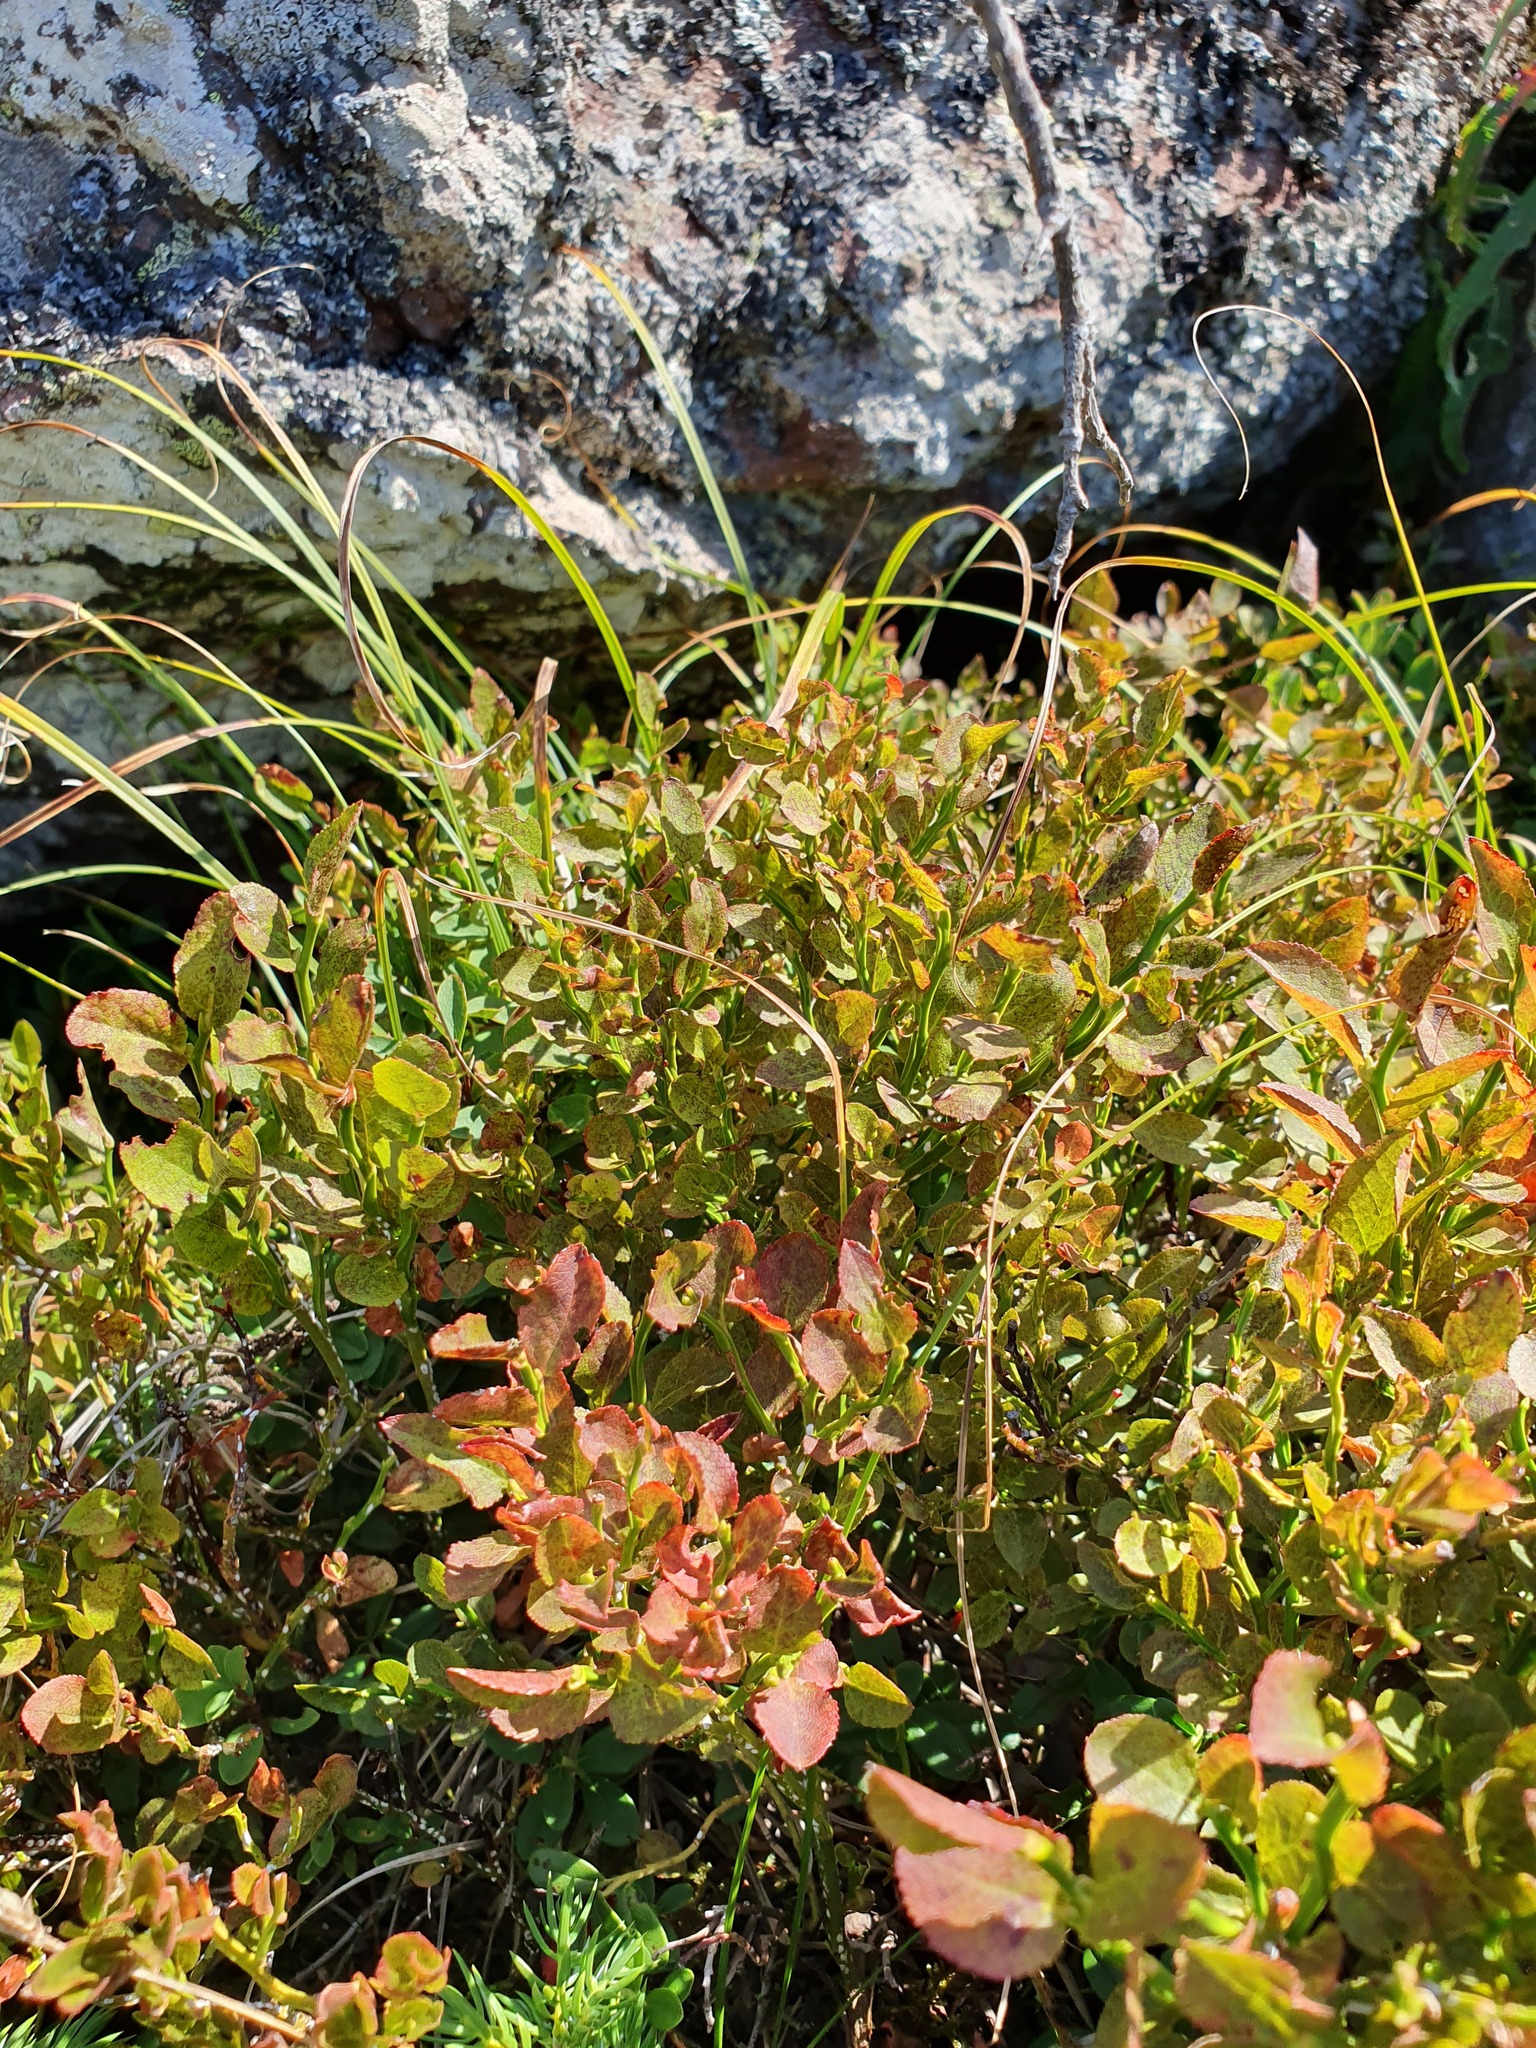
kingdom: Plantae
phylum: Tracheophyta
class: Magnoliopsida
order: Ericales
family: Ericaceae
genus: Vaccinium
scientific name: Vaccinium myrtillus
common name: Bilberry
